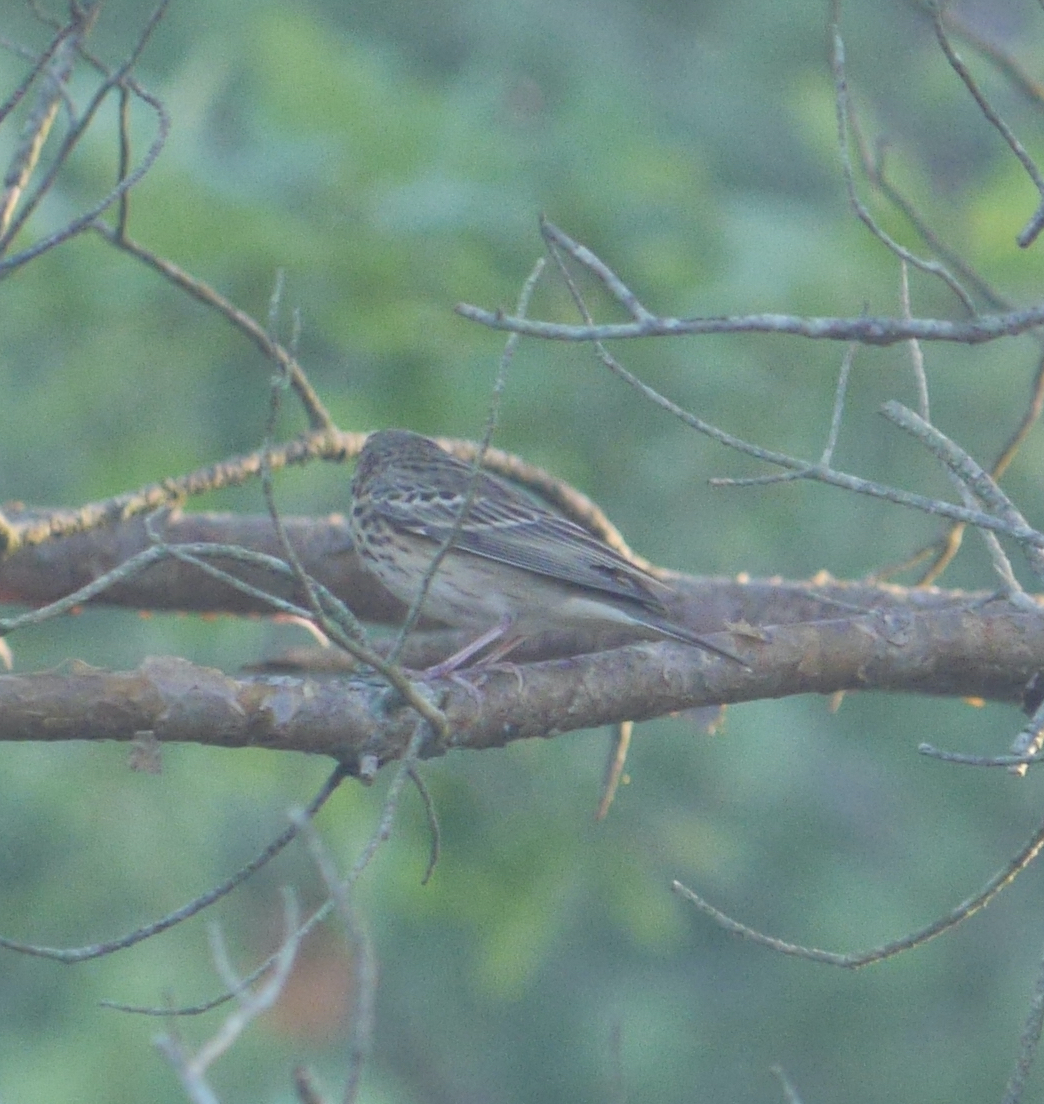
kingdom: Animalia
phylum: Chordata
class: Aves
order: Passeriformes
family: Motacillidae
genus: Anthus
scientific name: Anthus trivialis
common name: Tree pipit
